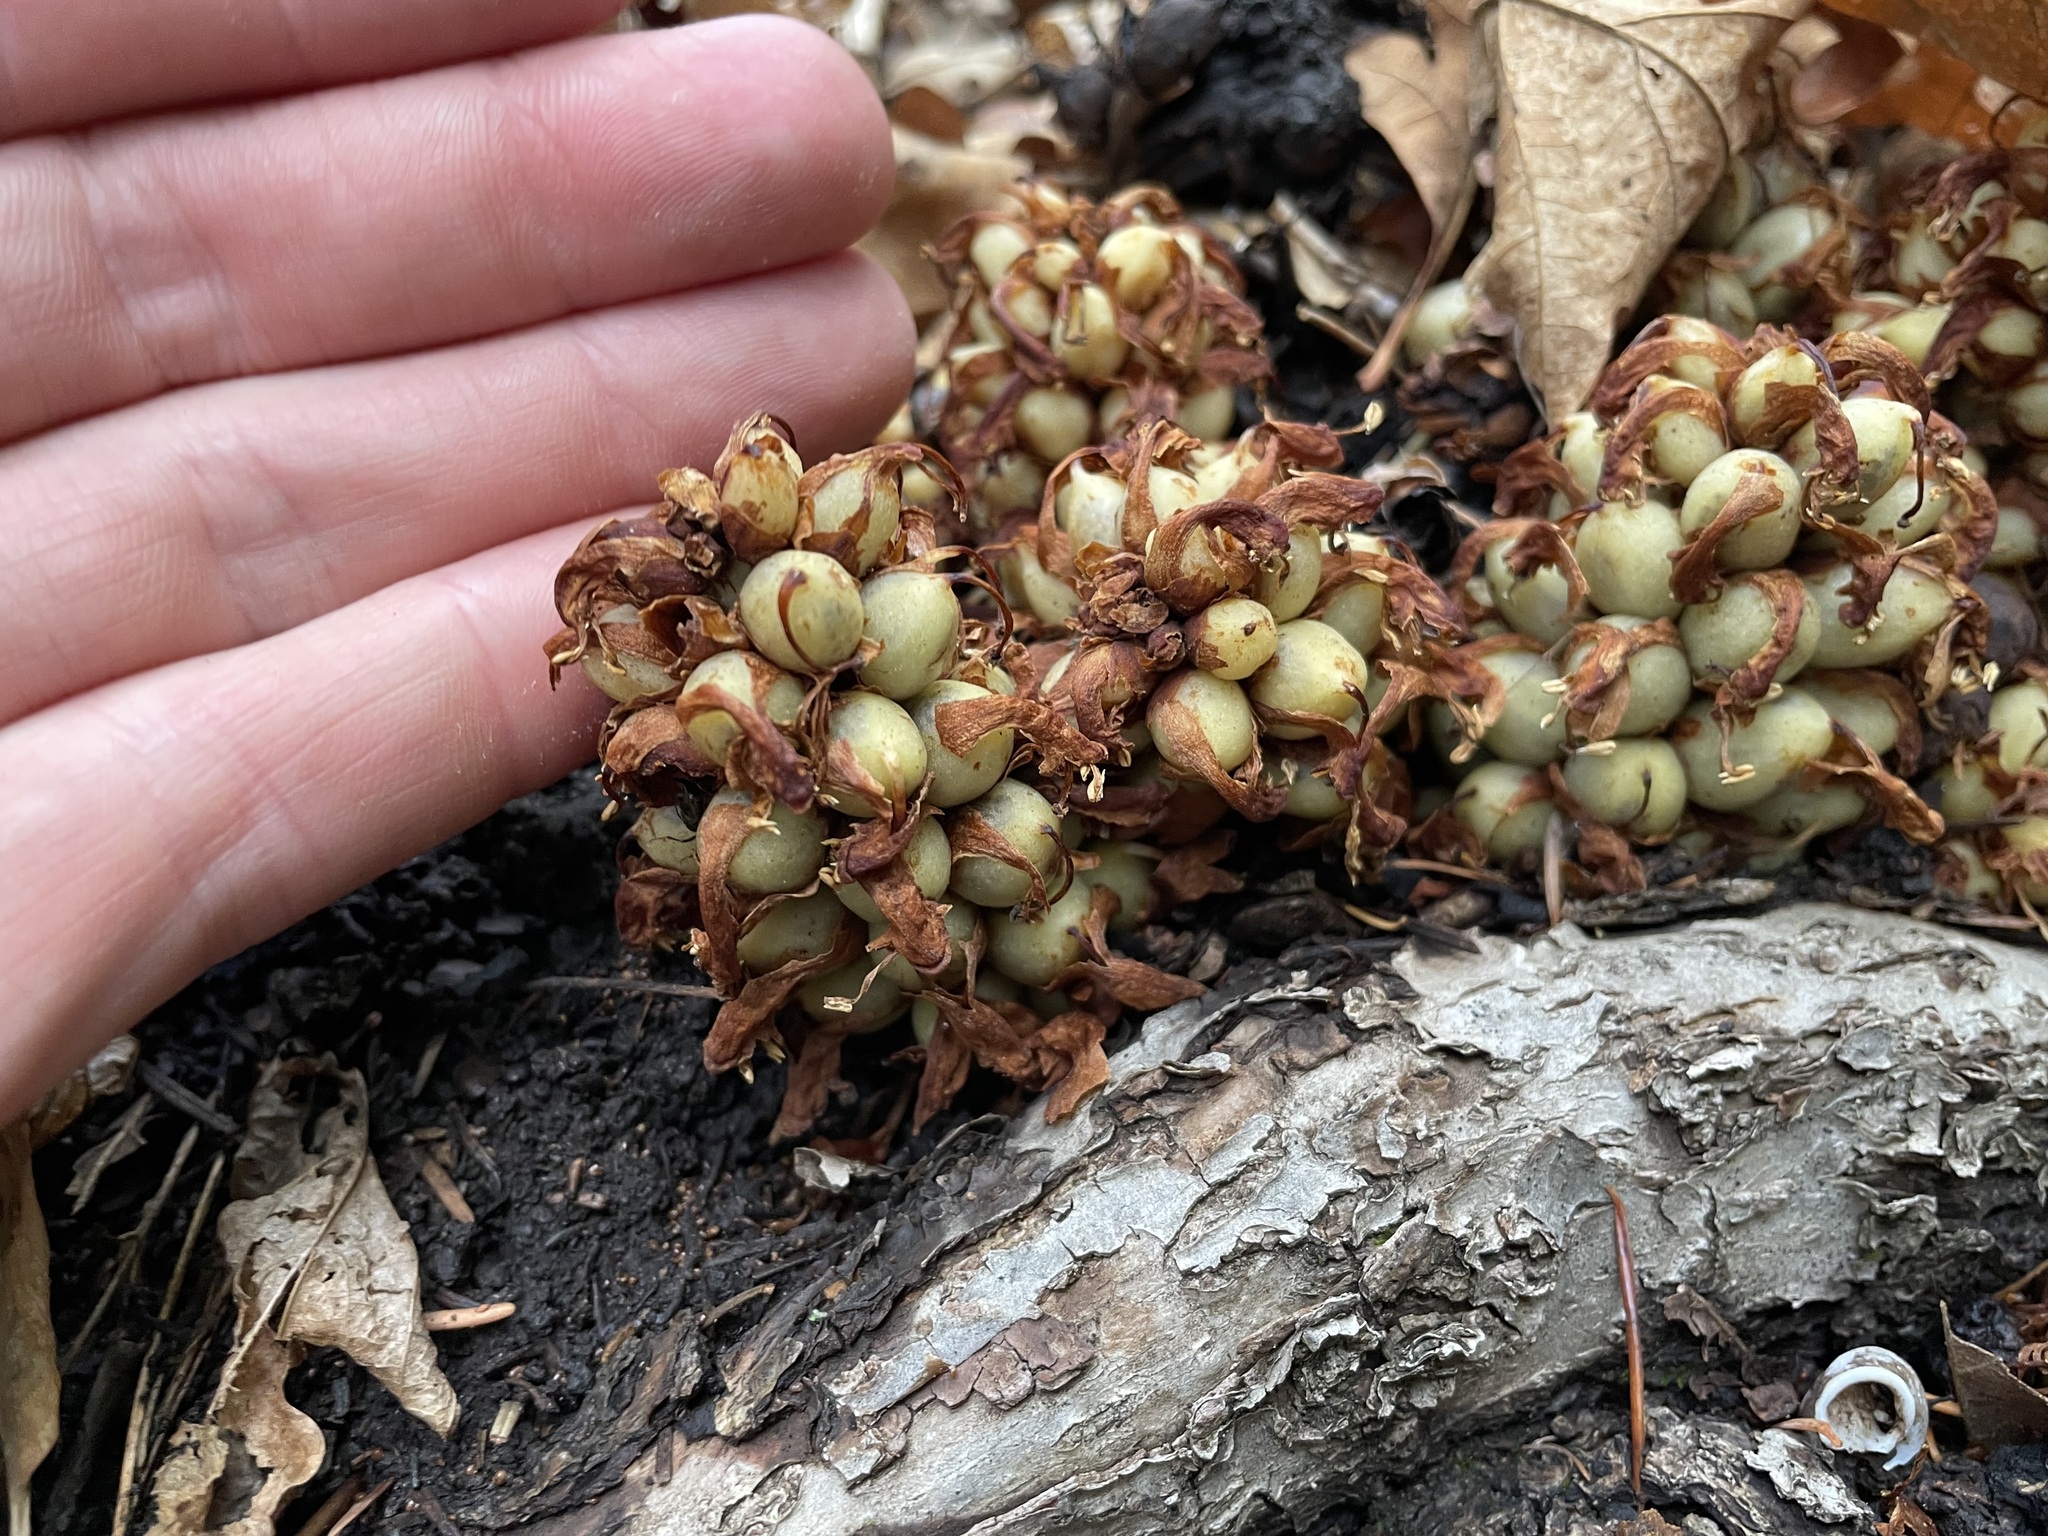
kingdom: Plantae
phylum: Tracheophyta
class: Magnoliopsida
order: Lamiales
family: Orobanchaceae
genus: Conopholis
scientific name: Conopholis alpina
